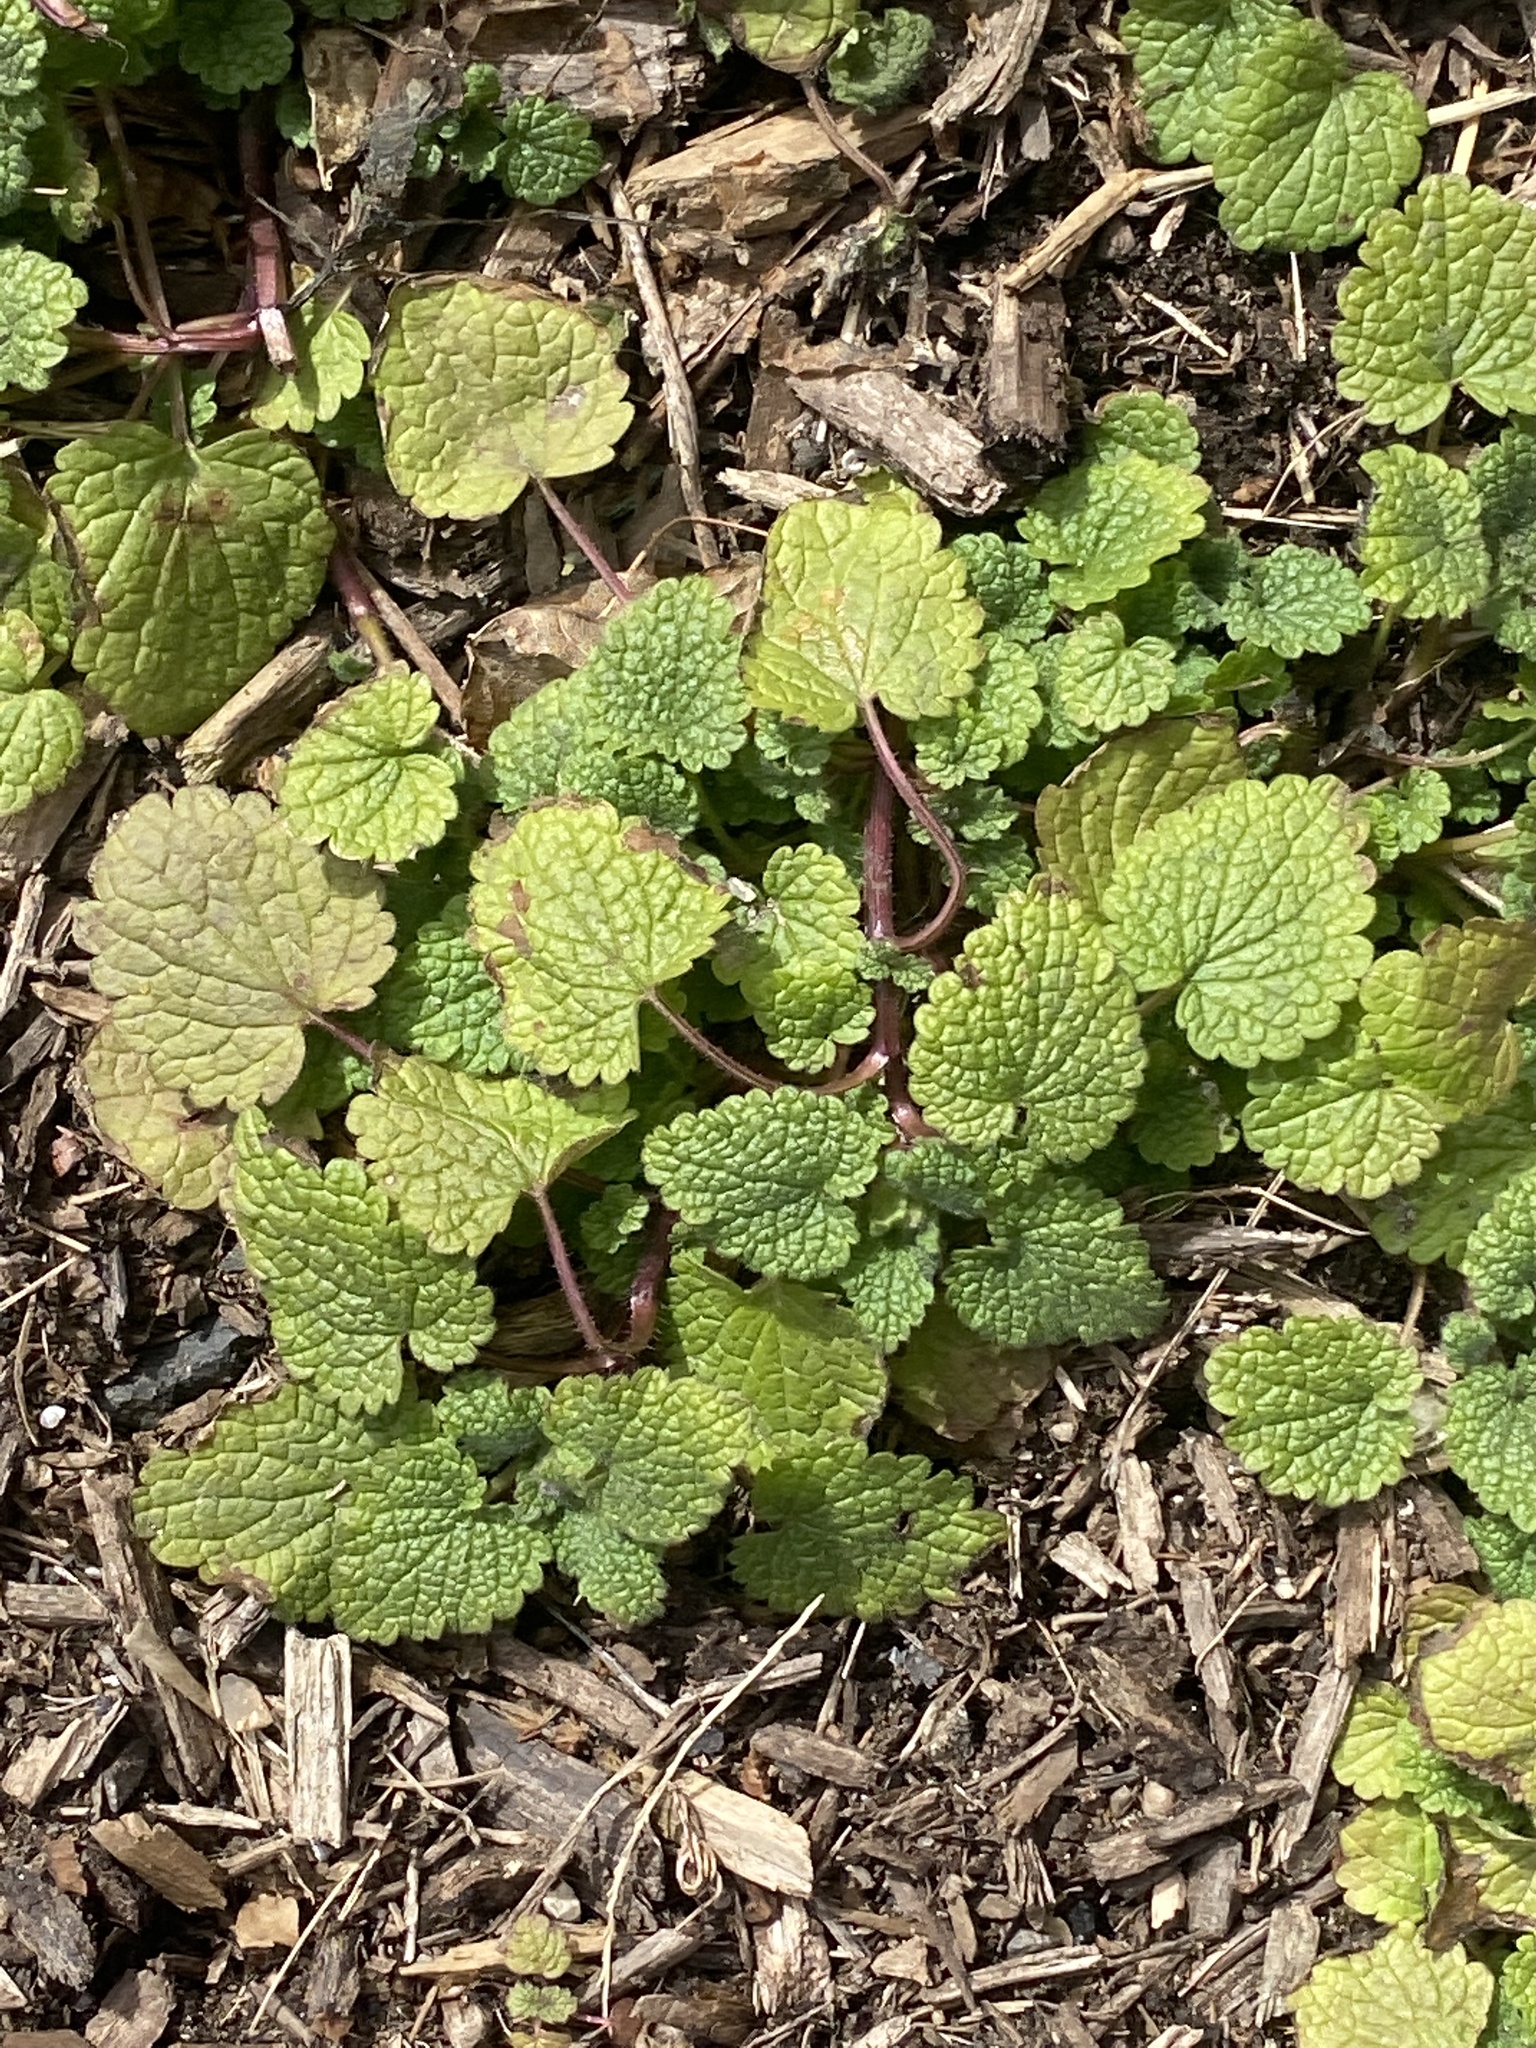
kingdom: Plantae
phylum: Tracheophyta
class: Magnoliopsida
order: Lamiales
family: Lamiaceae
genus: Lamium
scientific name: Lamium purpureum
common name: Red dead-nettle
